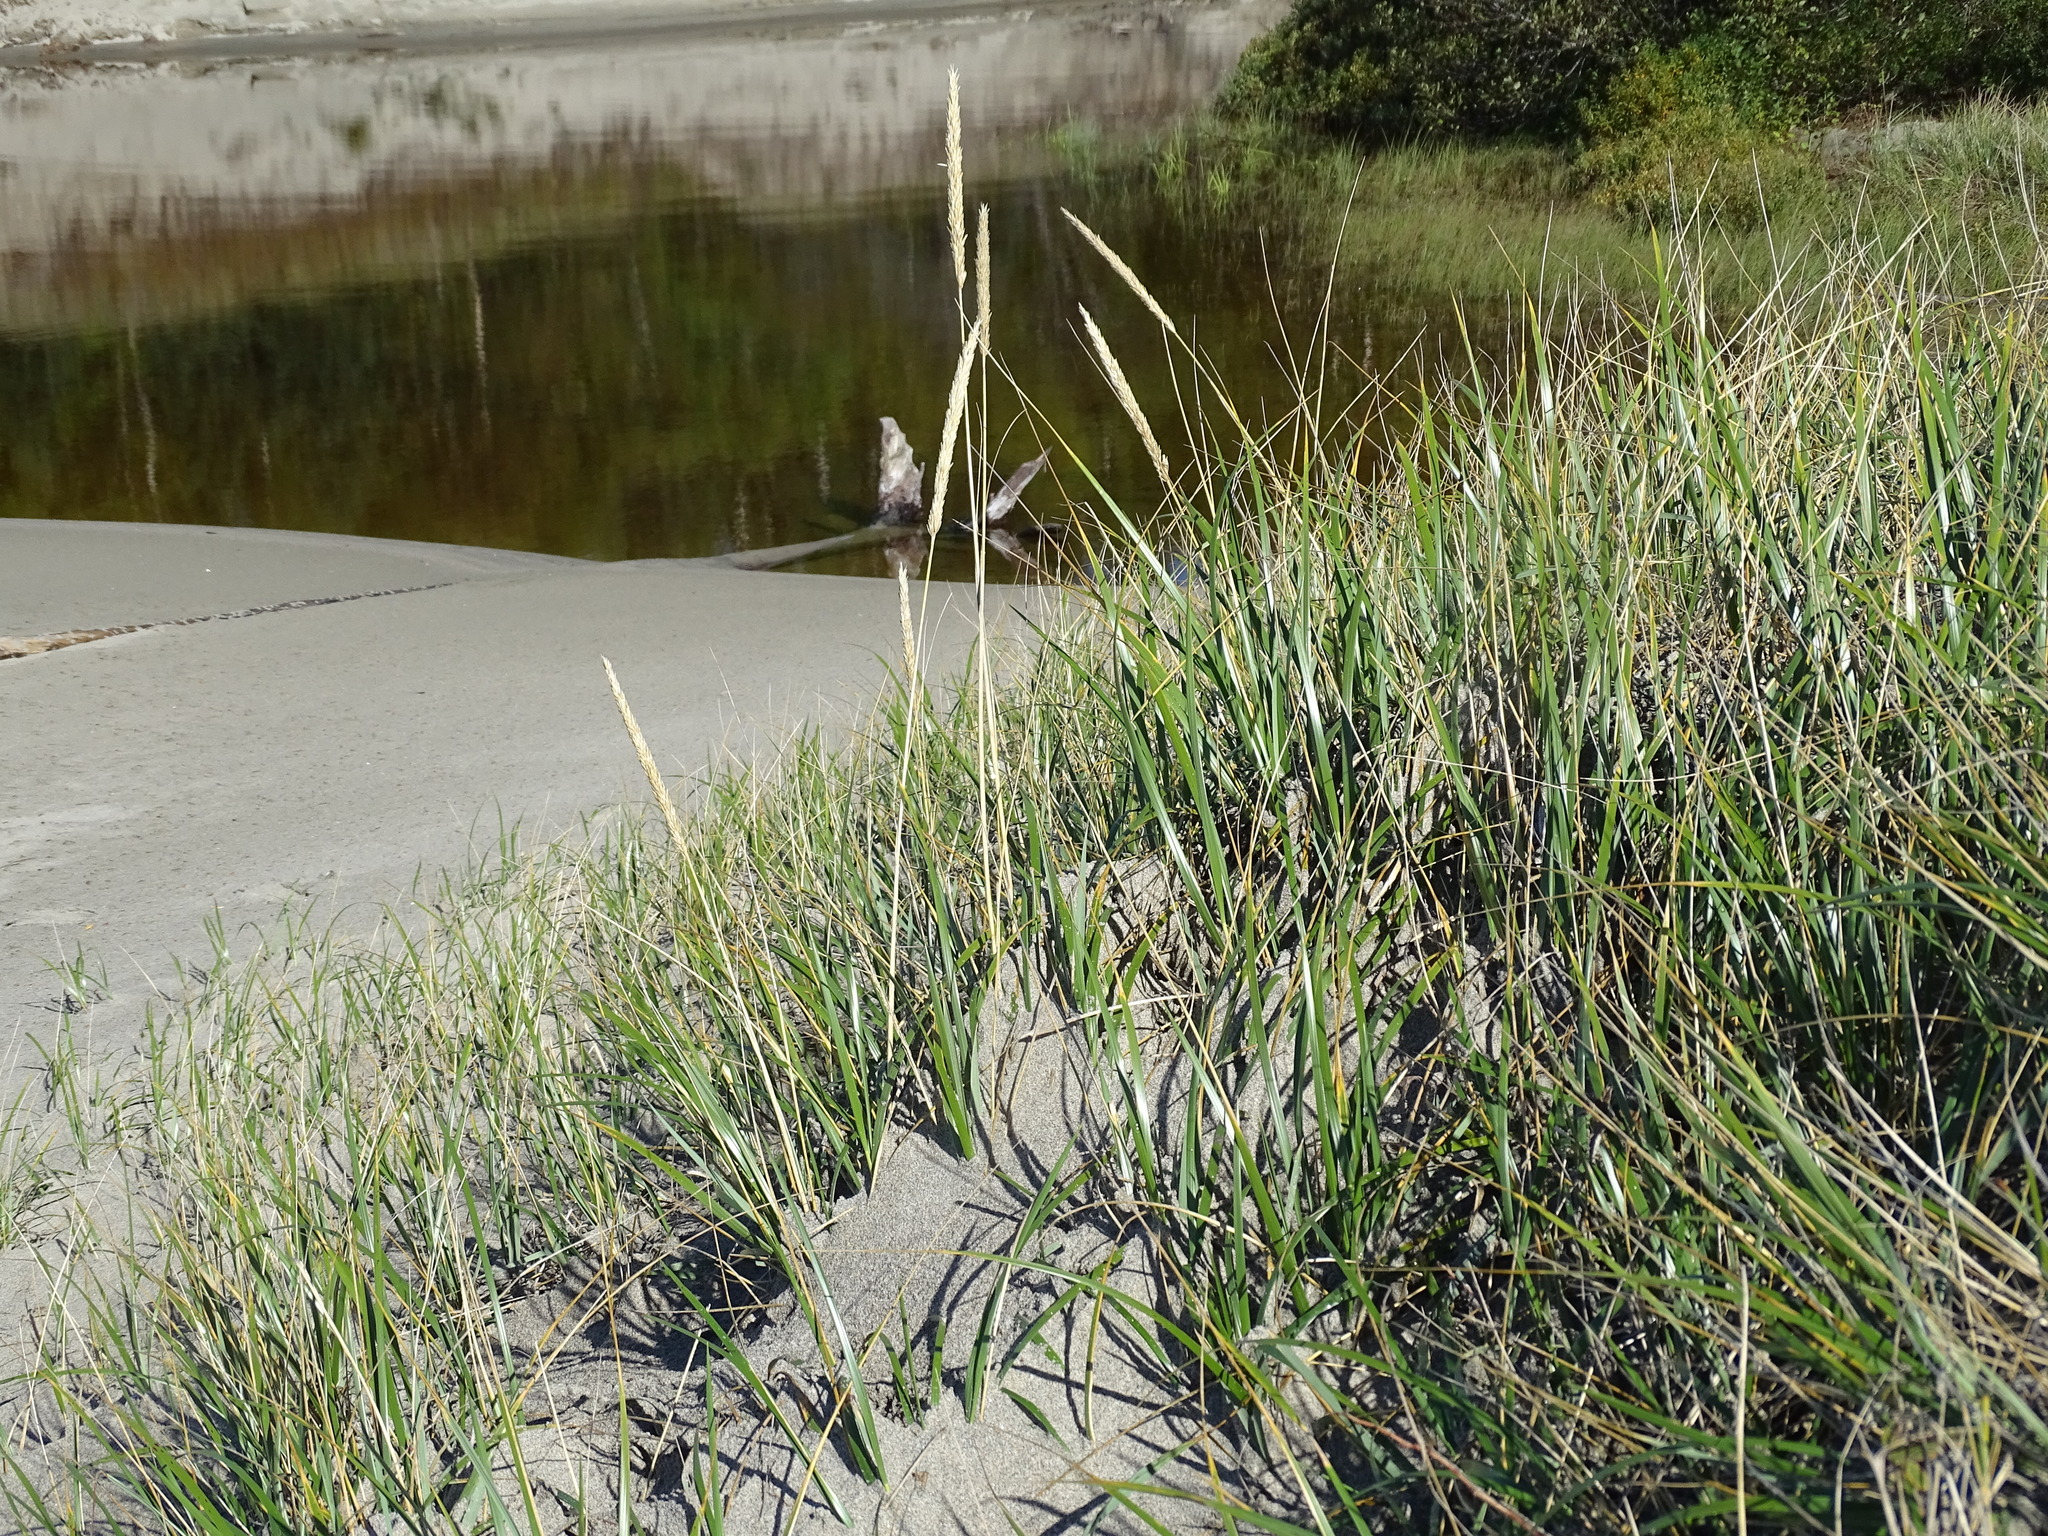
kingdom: Plantae
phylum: Tracheophyta
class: Liliopsida
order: Poales
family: Poaceae
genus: Calamagrostis
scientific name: Calamagrostis breviligulata
